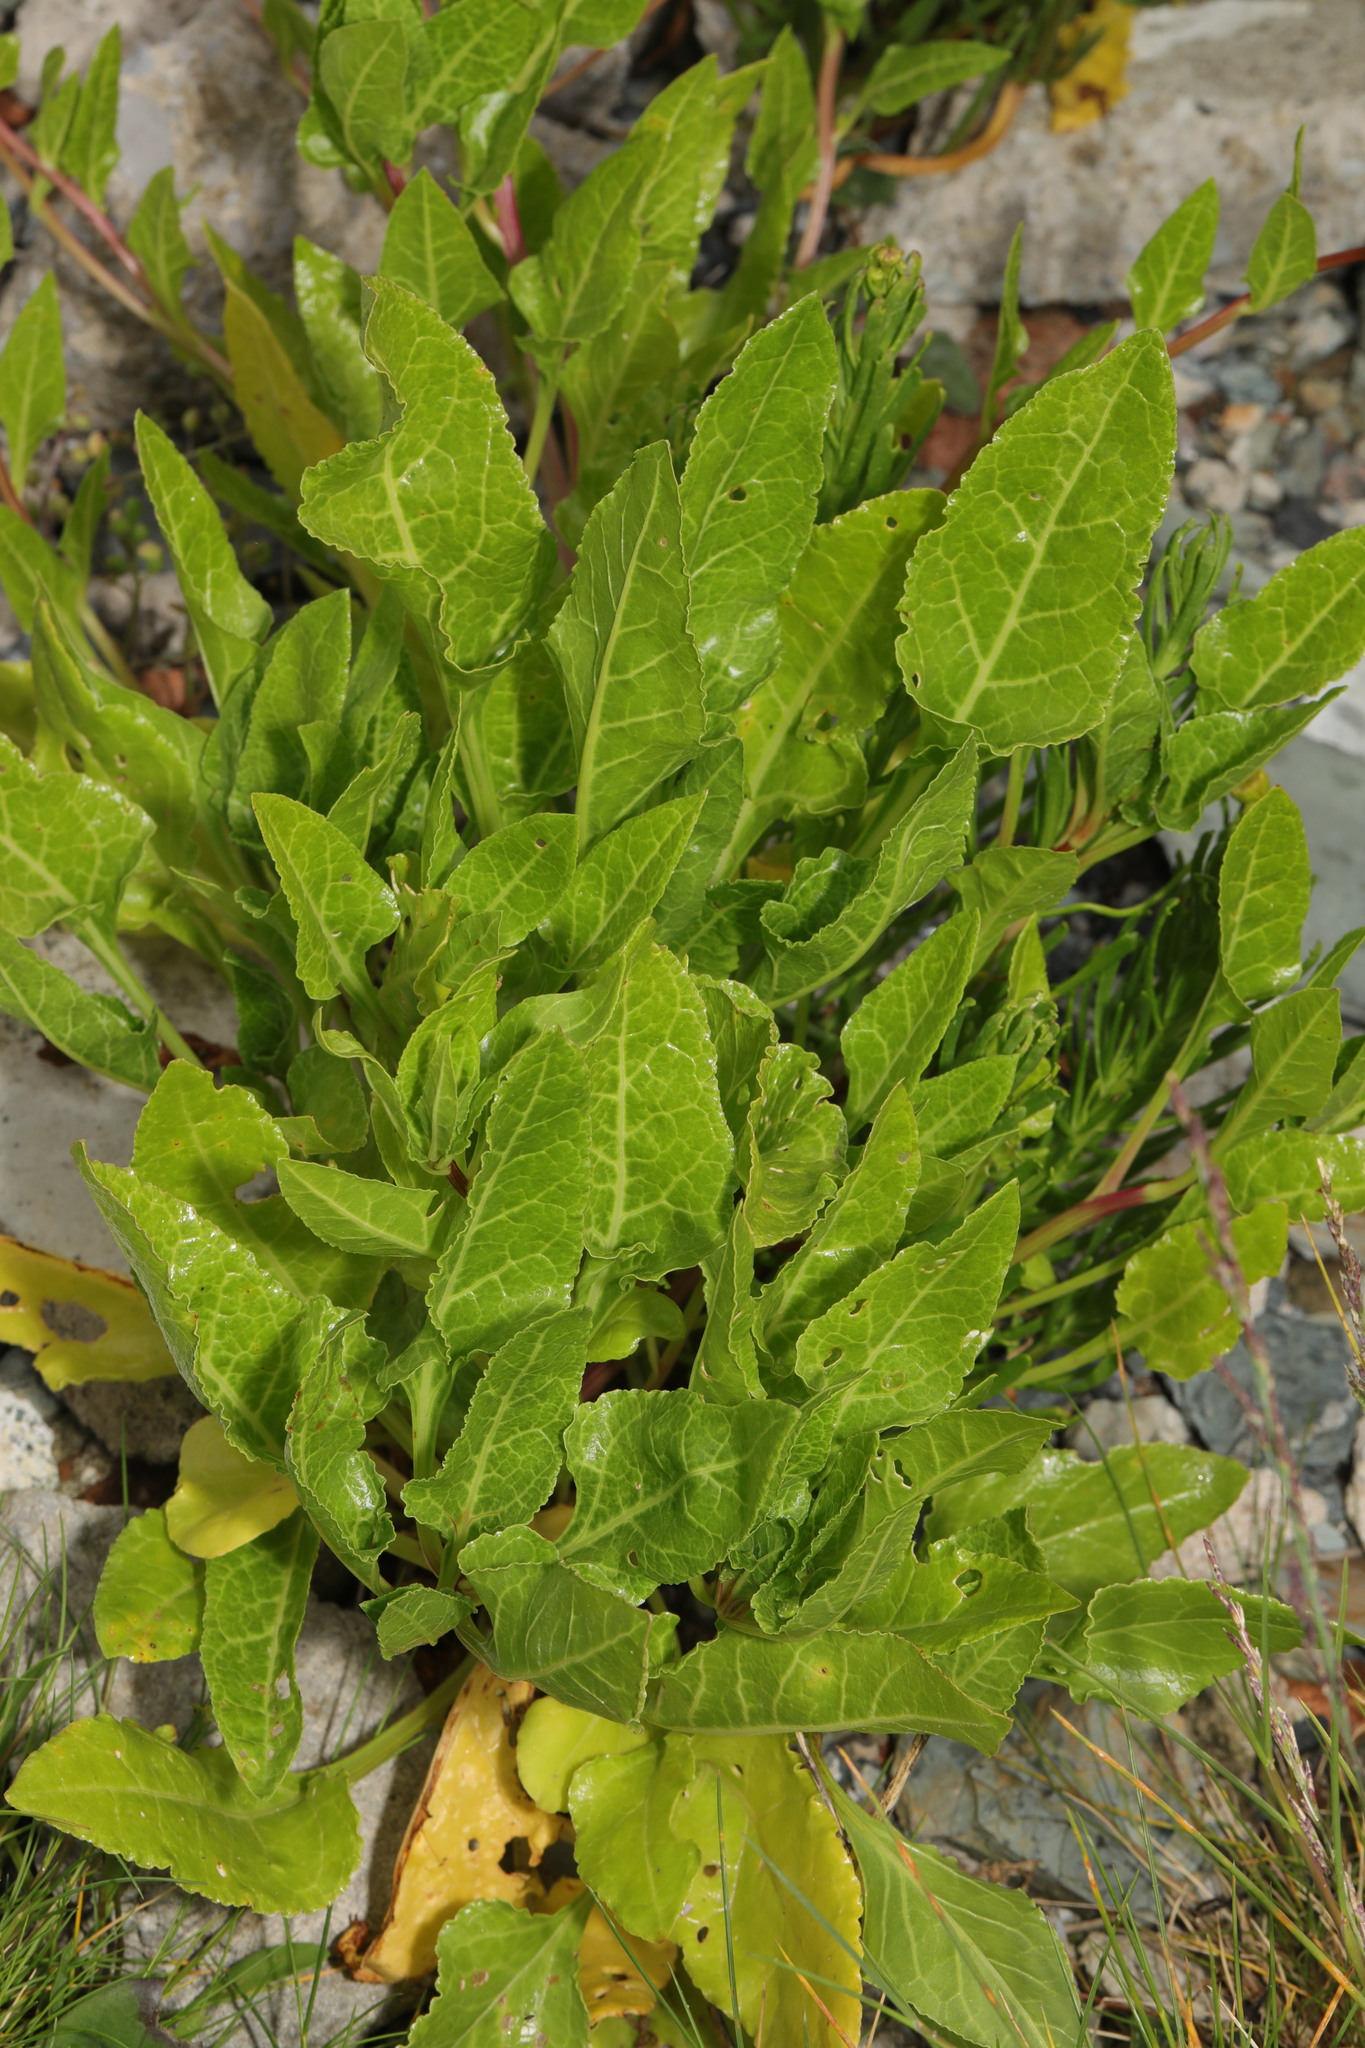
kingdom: Plantae
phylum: Tracheophyta
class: Magnoliopsida
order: Caryophyllales
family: Amaranthaceae
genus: Beta
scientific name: Beta vulgaris
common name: Beet
